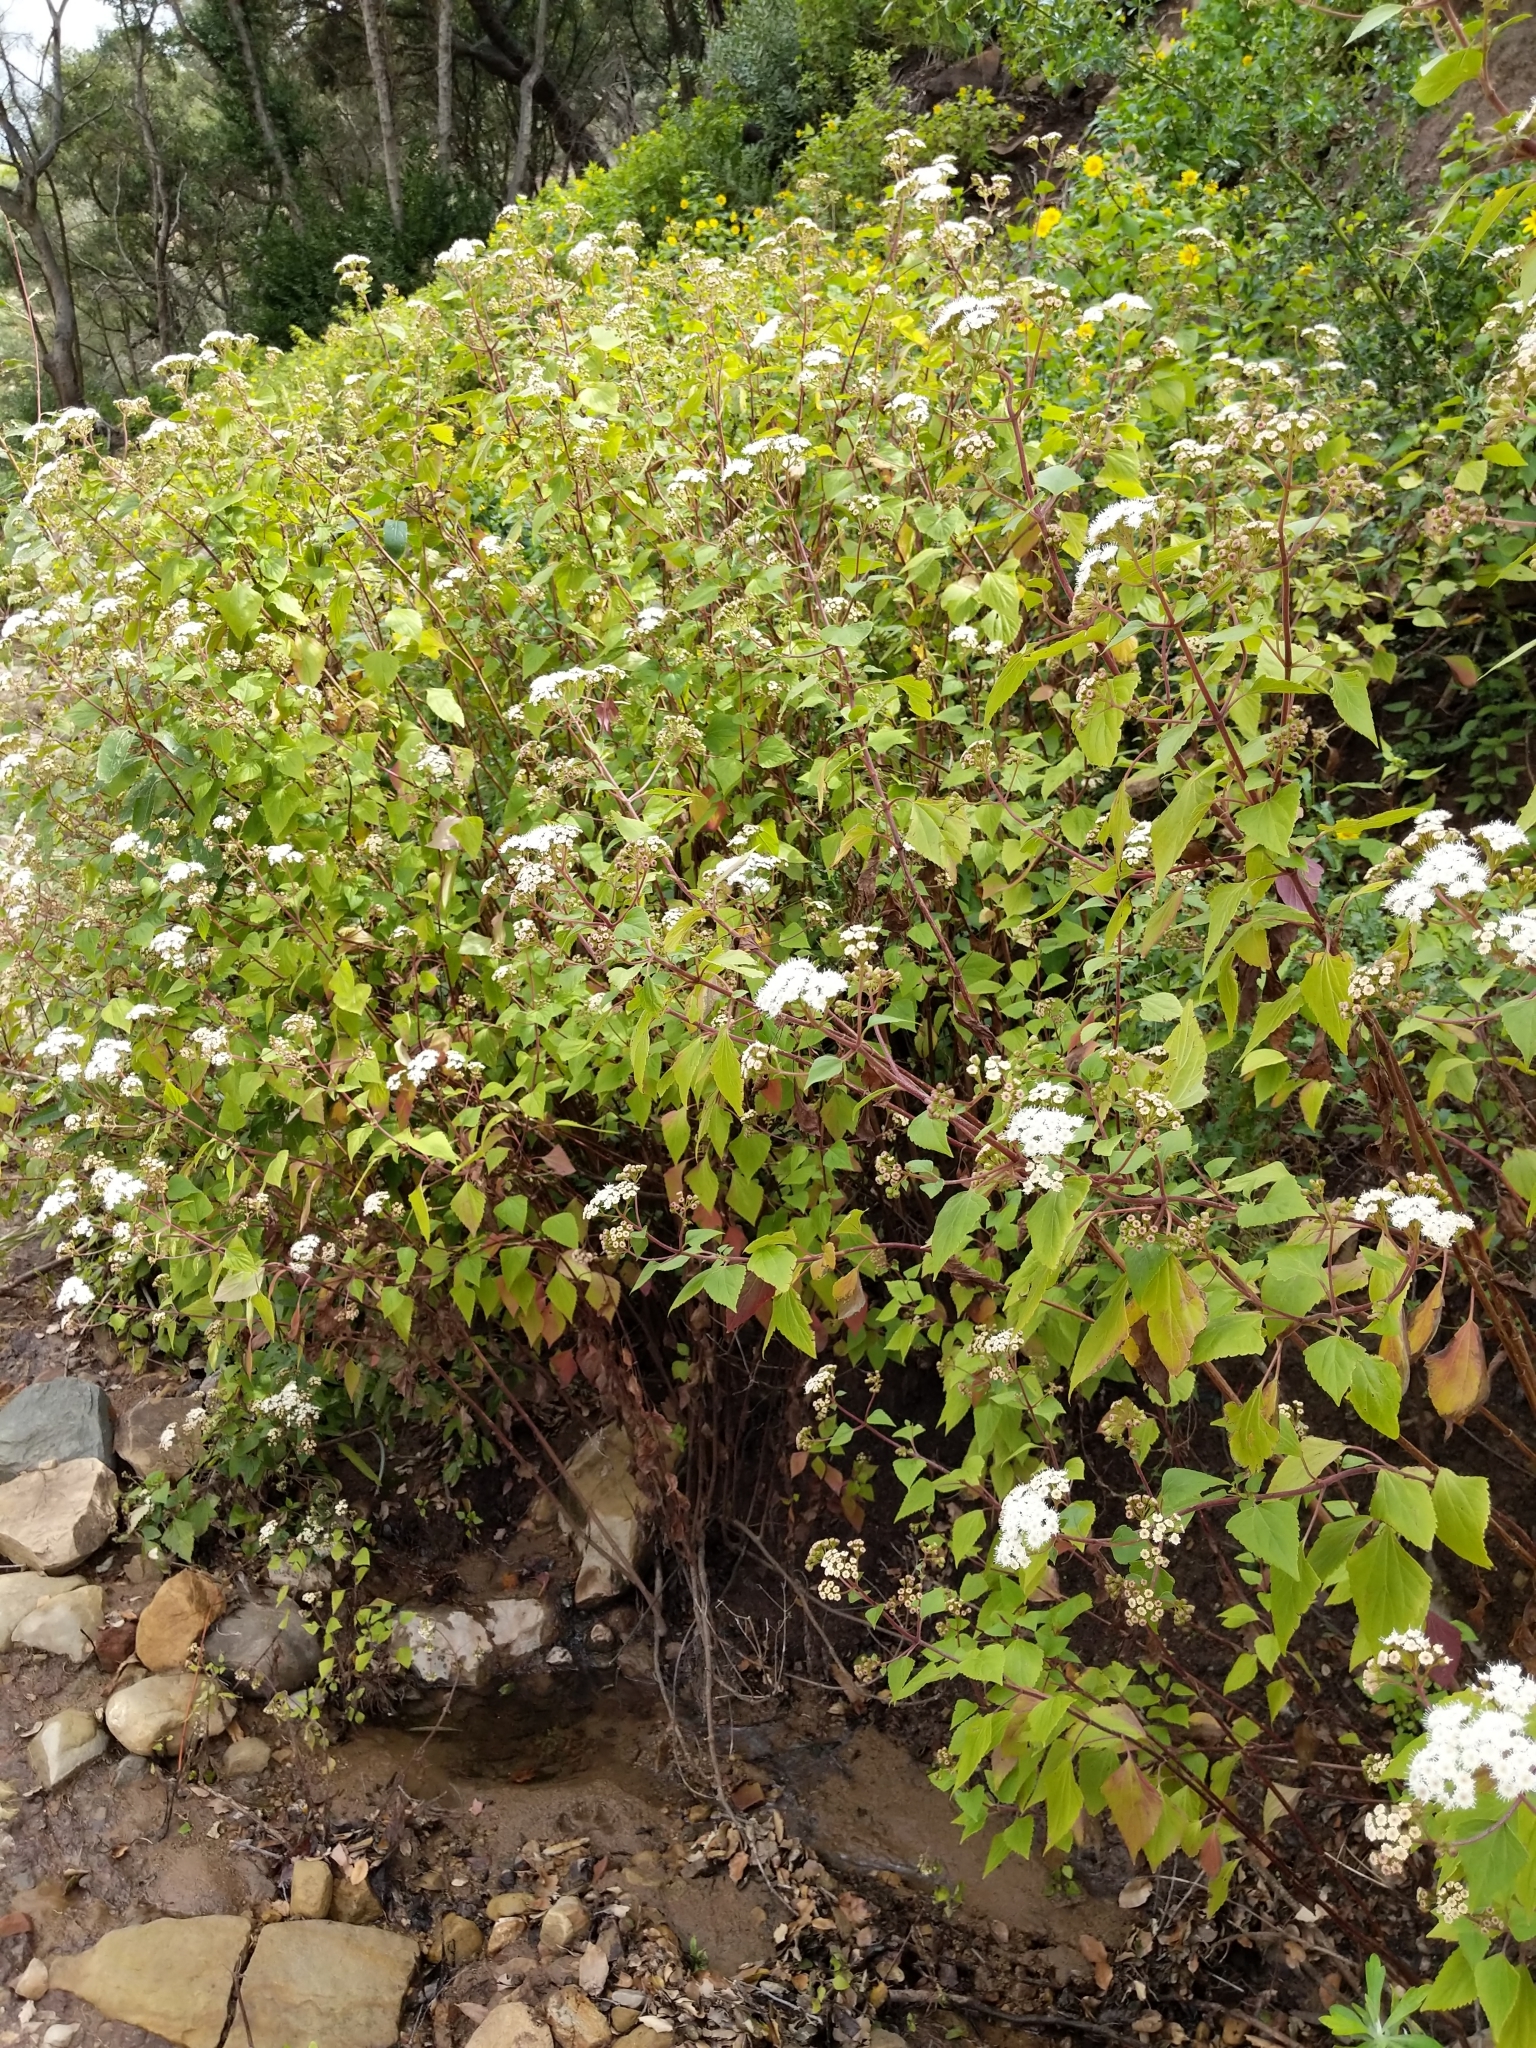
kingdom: Plantae
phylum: Tracheophyta
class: Magnoliopsida
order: Asterales
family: Asteraceae
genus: Ageratina
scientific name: Ageratina adenophora
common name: Sticky snakeroot
